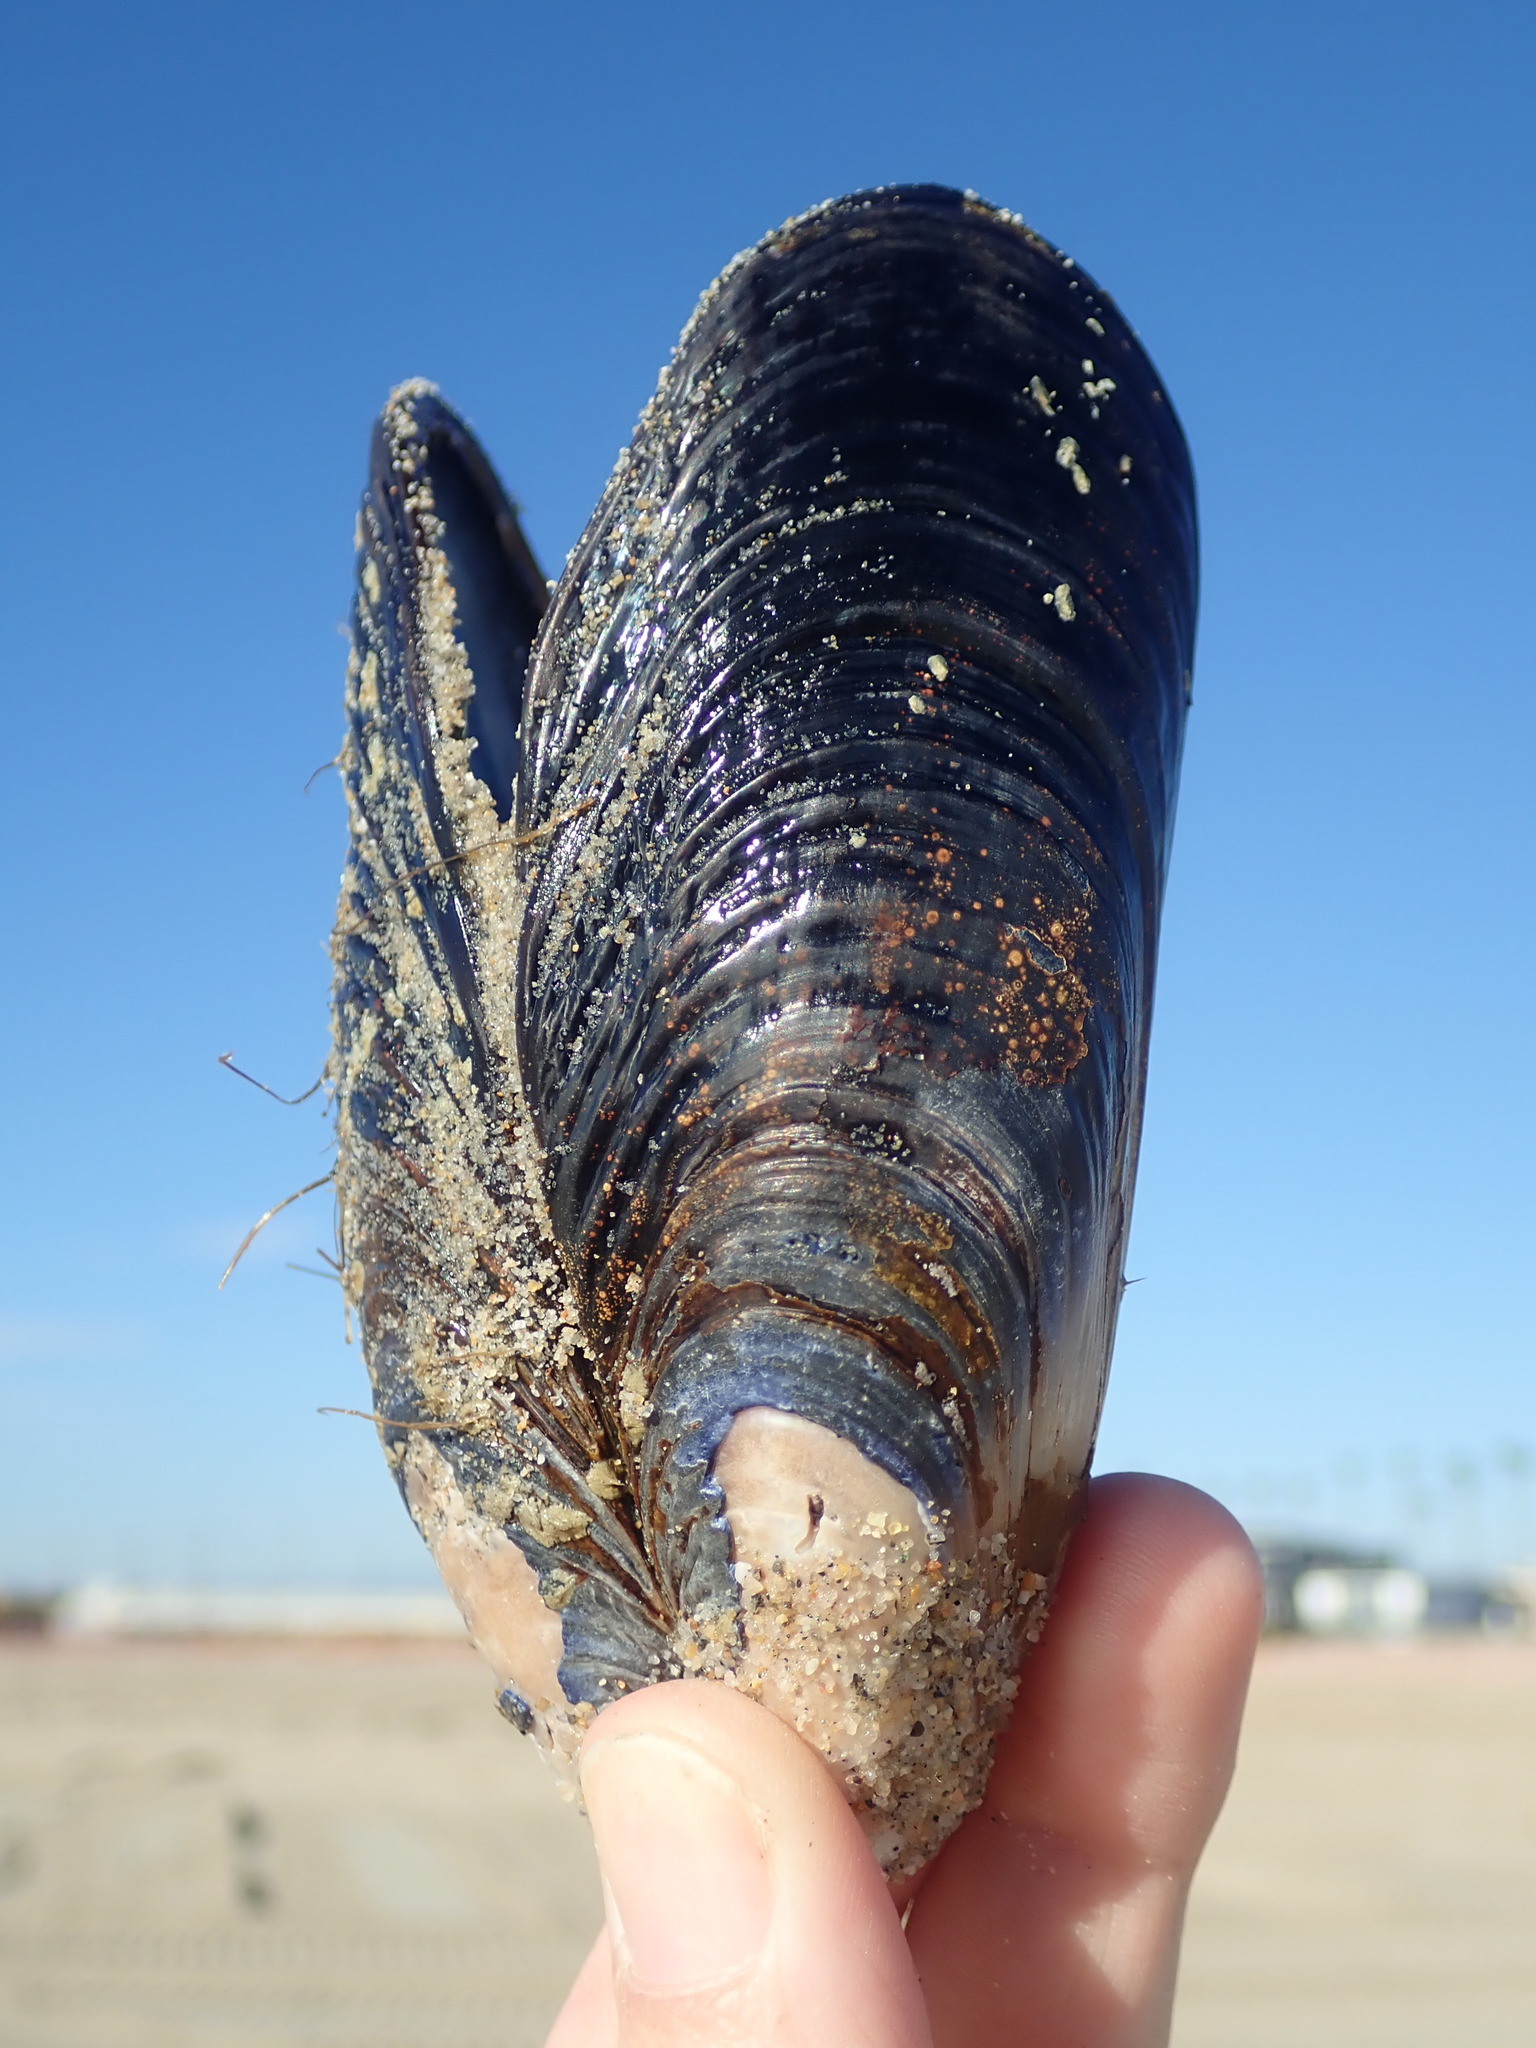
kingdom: Animalia
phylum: Mollusca
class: Bivalvia
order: Mytilida
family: Mytilidae
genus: Mytilus
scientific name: Mytilus californianus
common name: California mussel
